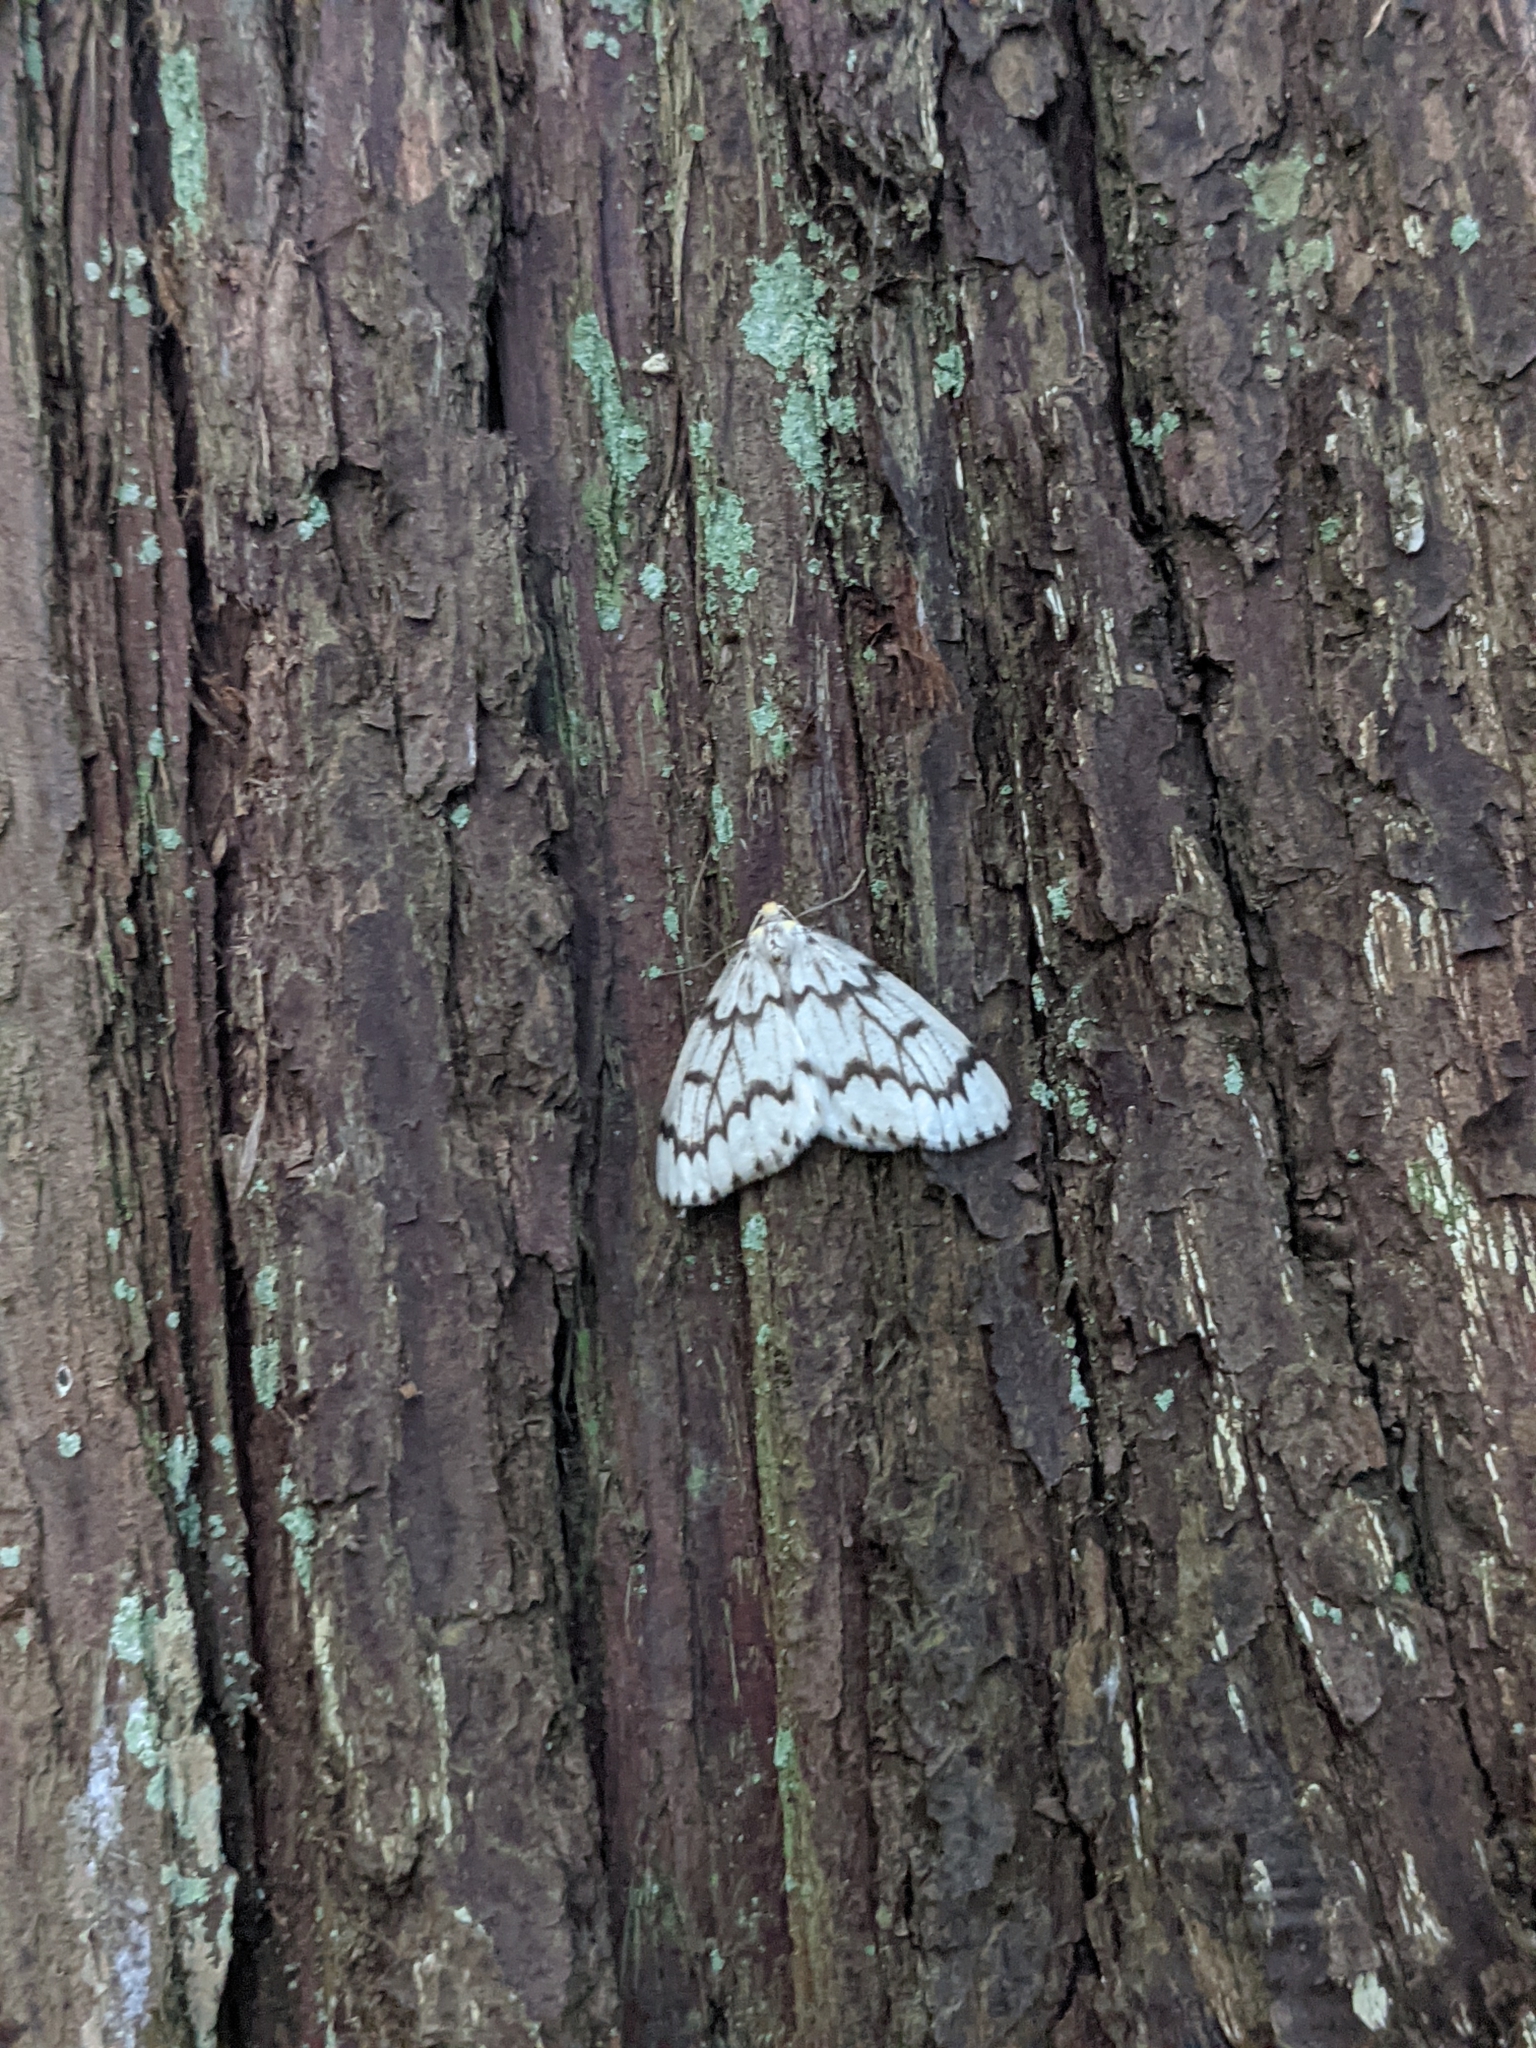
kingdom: Animalia
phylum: Arthropoda
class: Insecta
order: Lepidoptera
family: Geometridae
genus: Nepytia
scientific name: Nepytia phantasmaria
